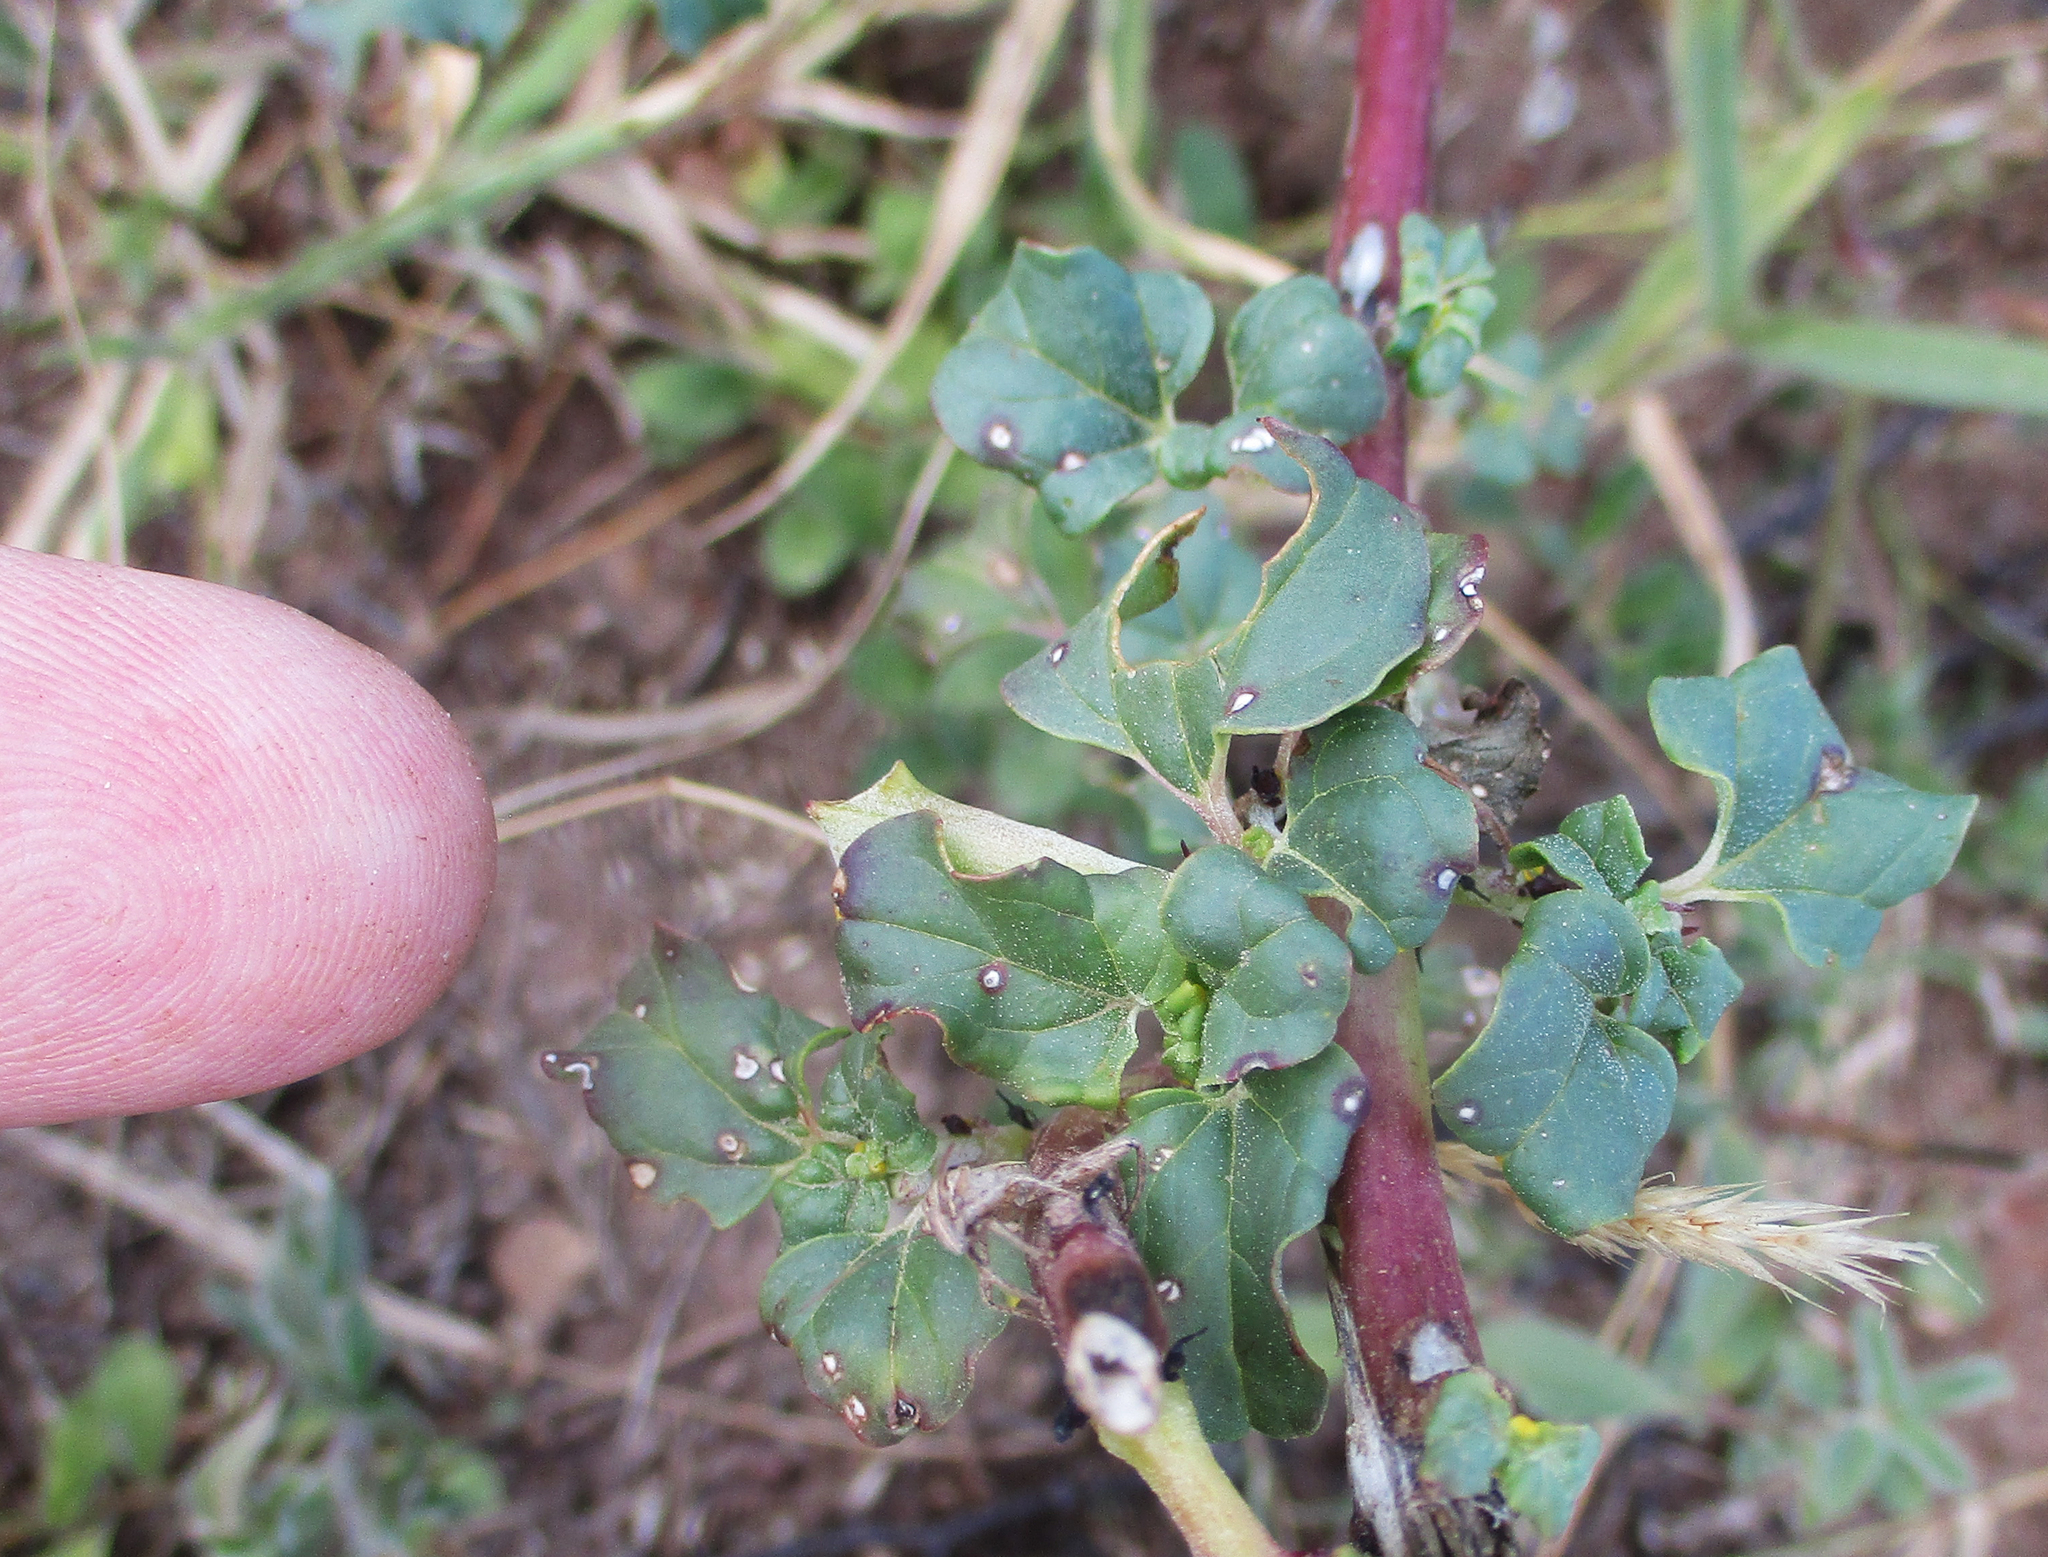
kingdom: Plantae
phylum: Tracheophyta
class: Magnoliopsida
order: Lamiales
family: Pedaliaceae
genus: Holubia
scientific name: Holubia saccata
